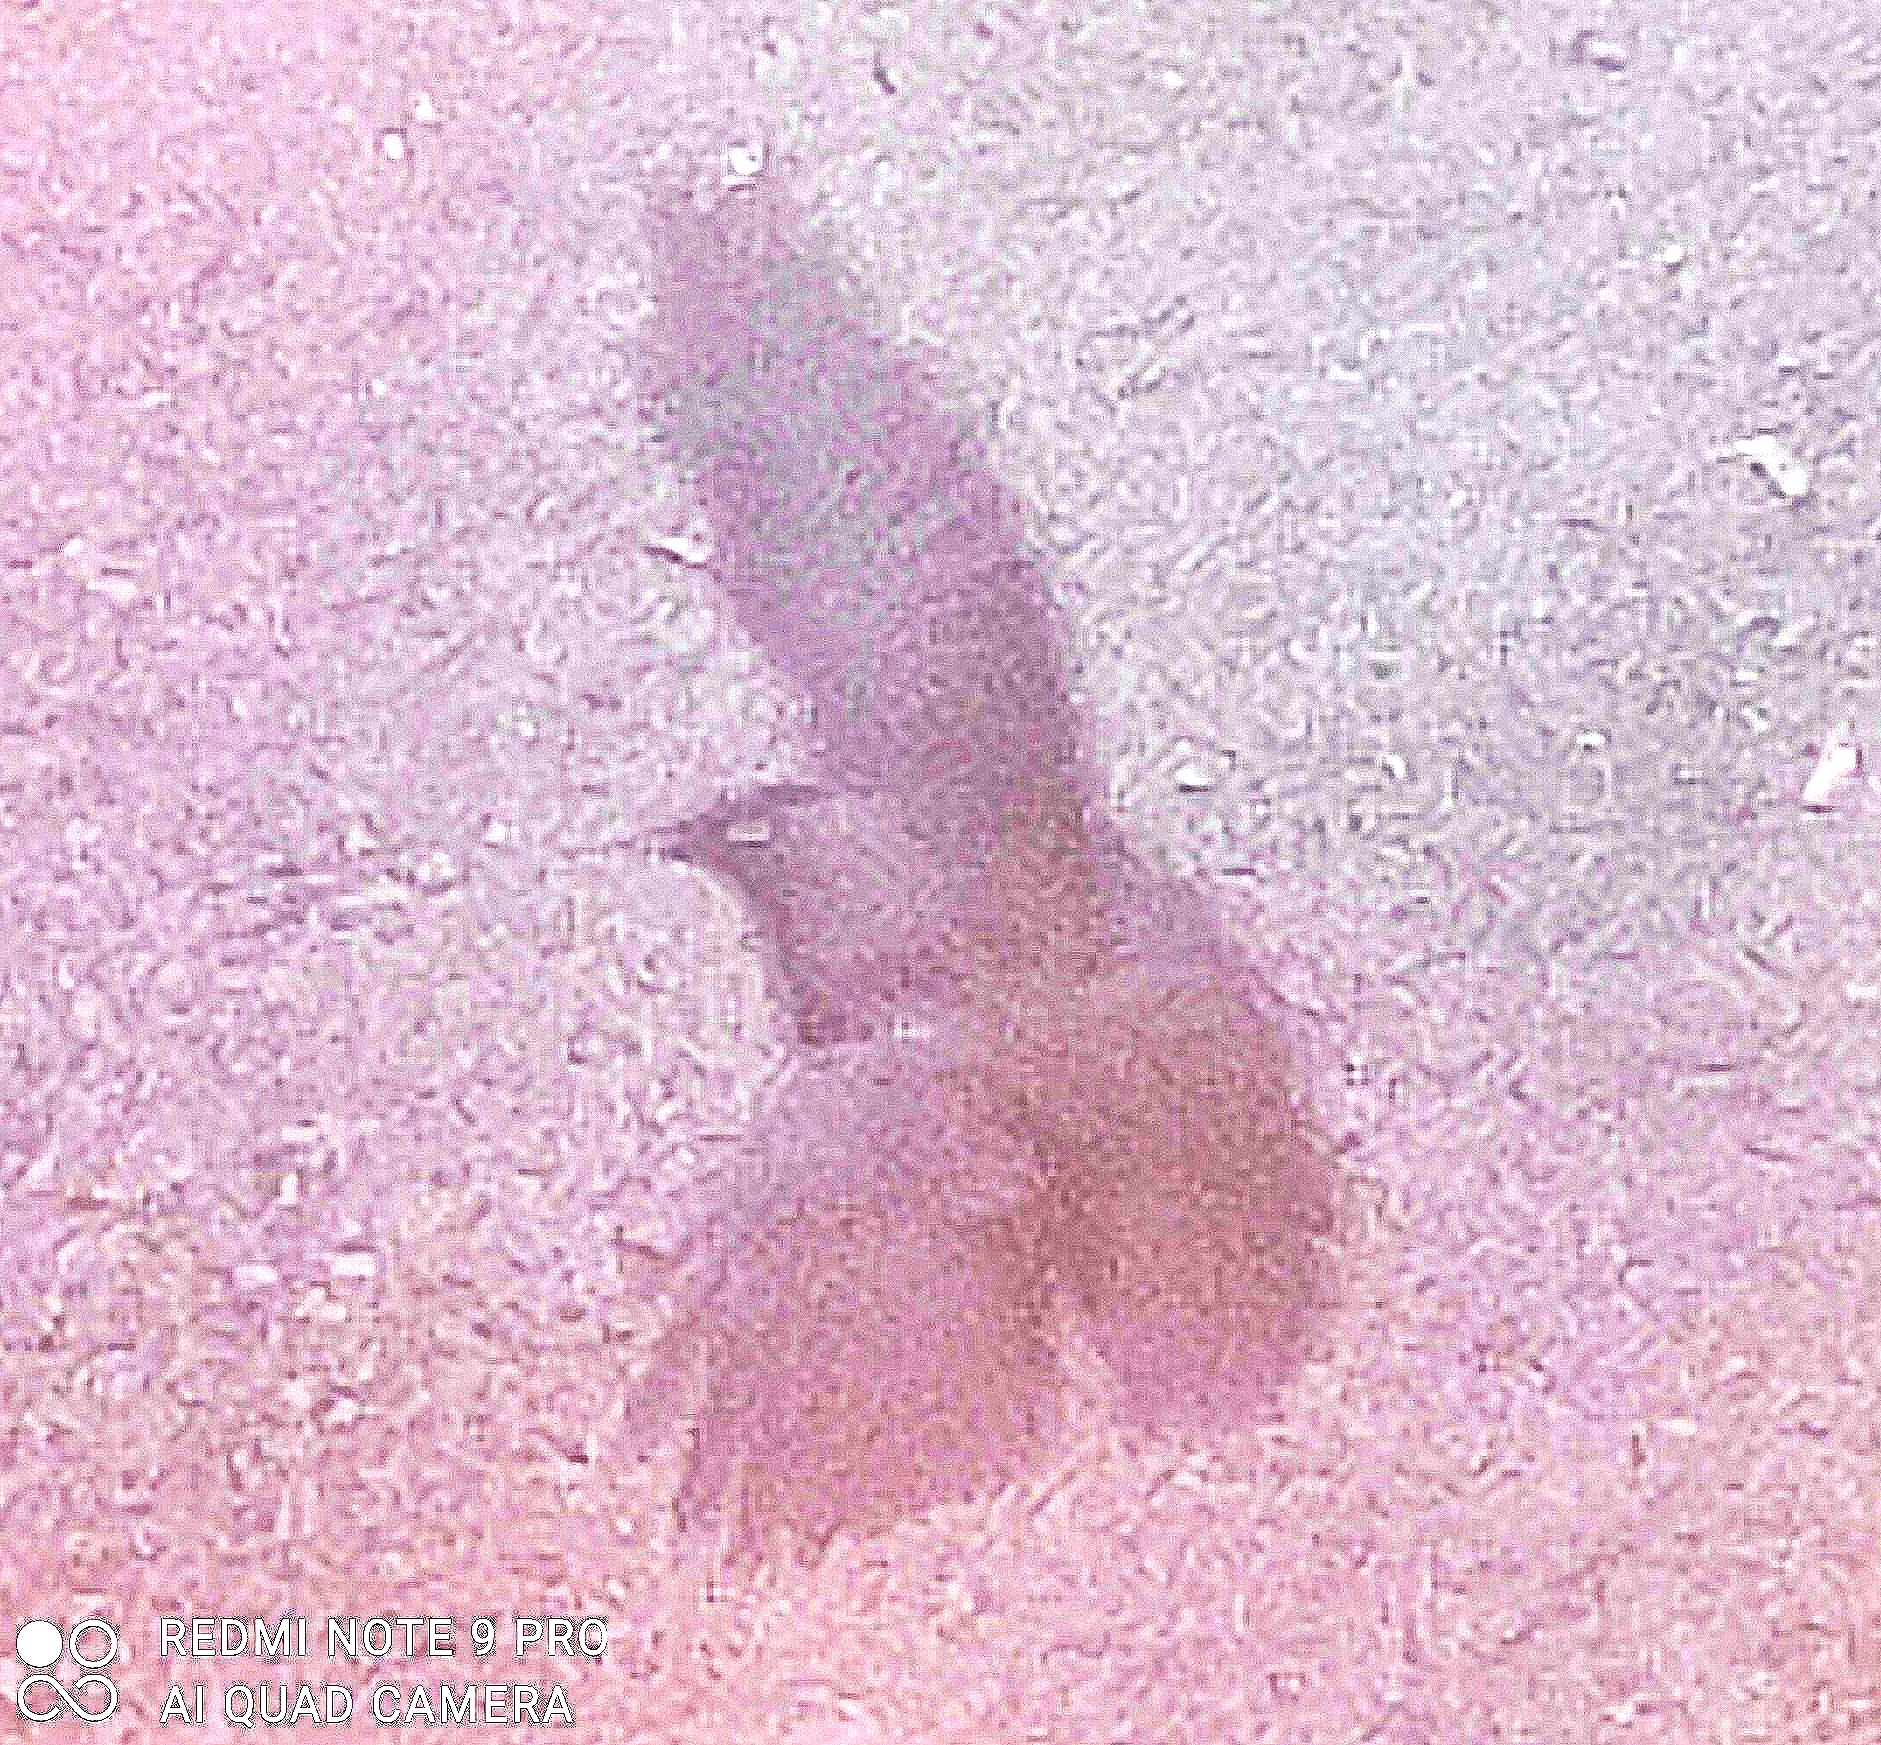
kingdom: Animalia
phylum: Chordata
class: Aves
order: Passeriformes
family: Corvidae
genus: Coloeus
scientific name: Coloeus monedula
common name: Western jackdaw
